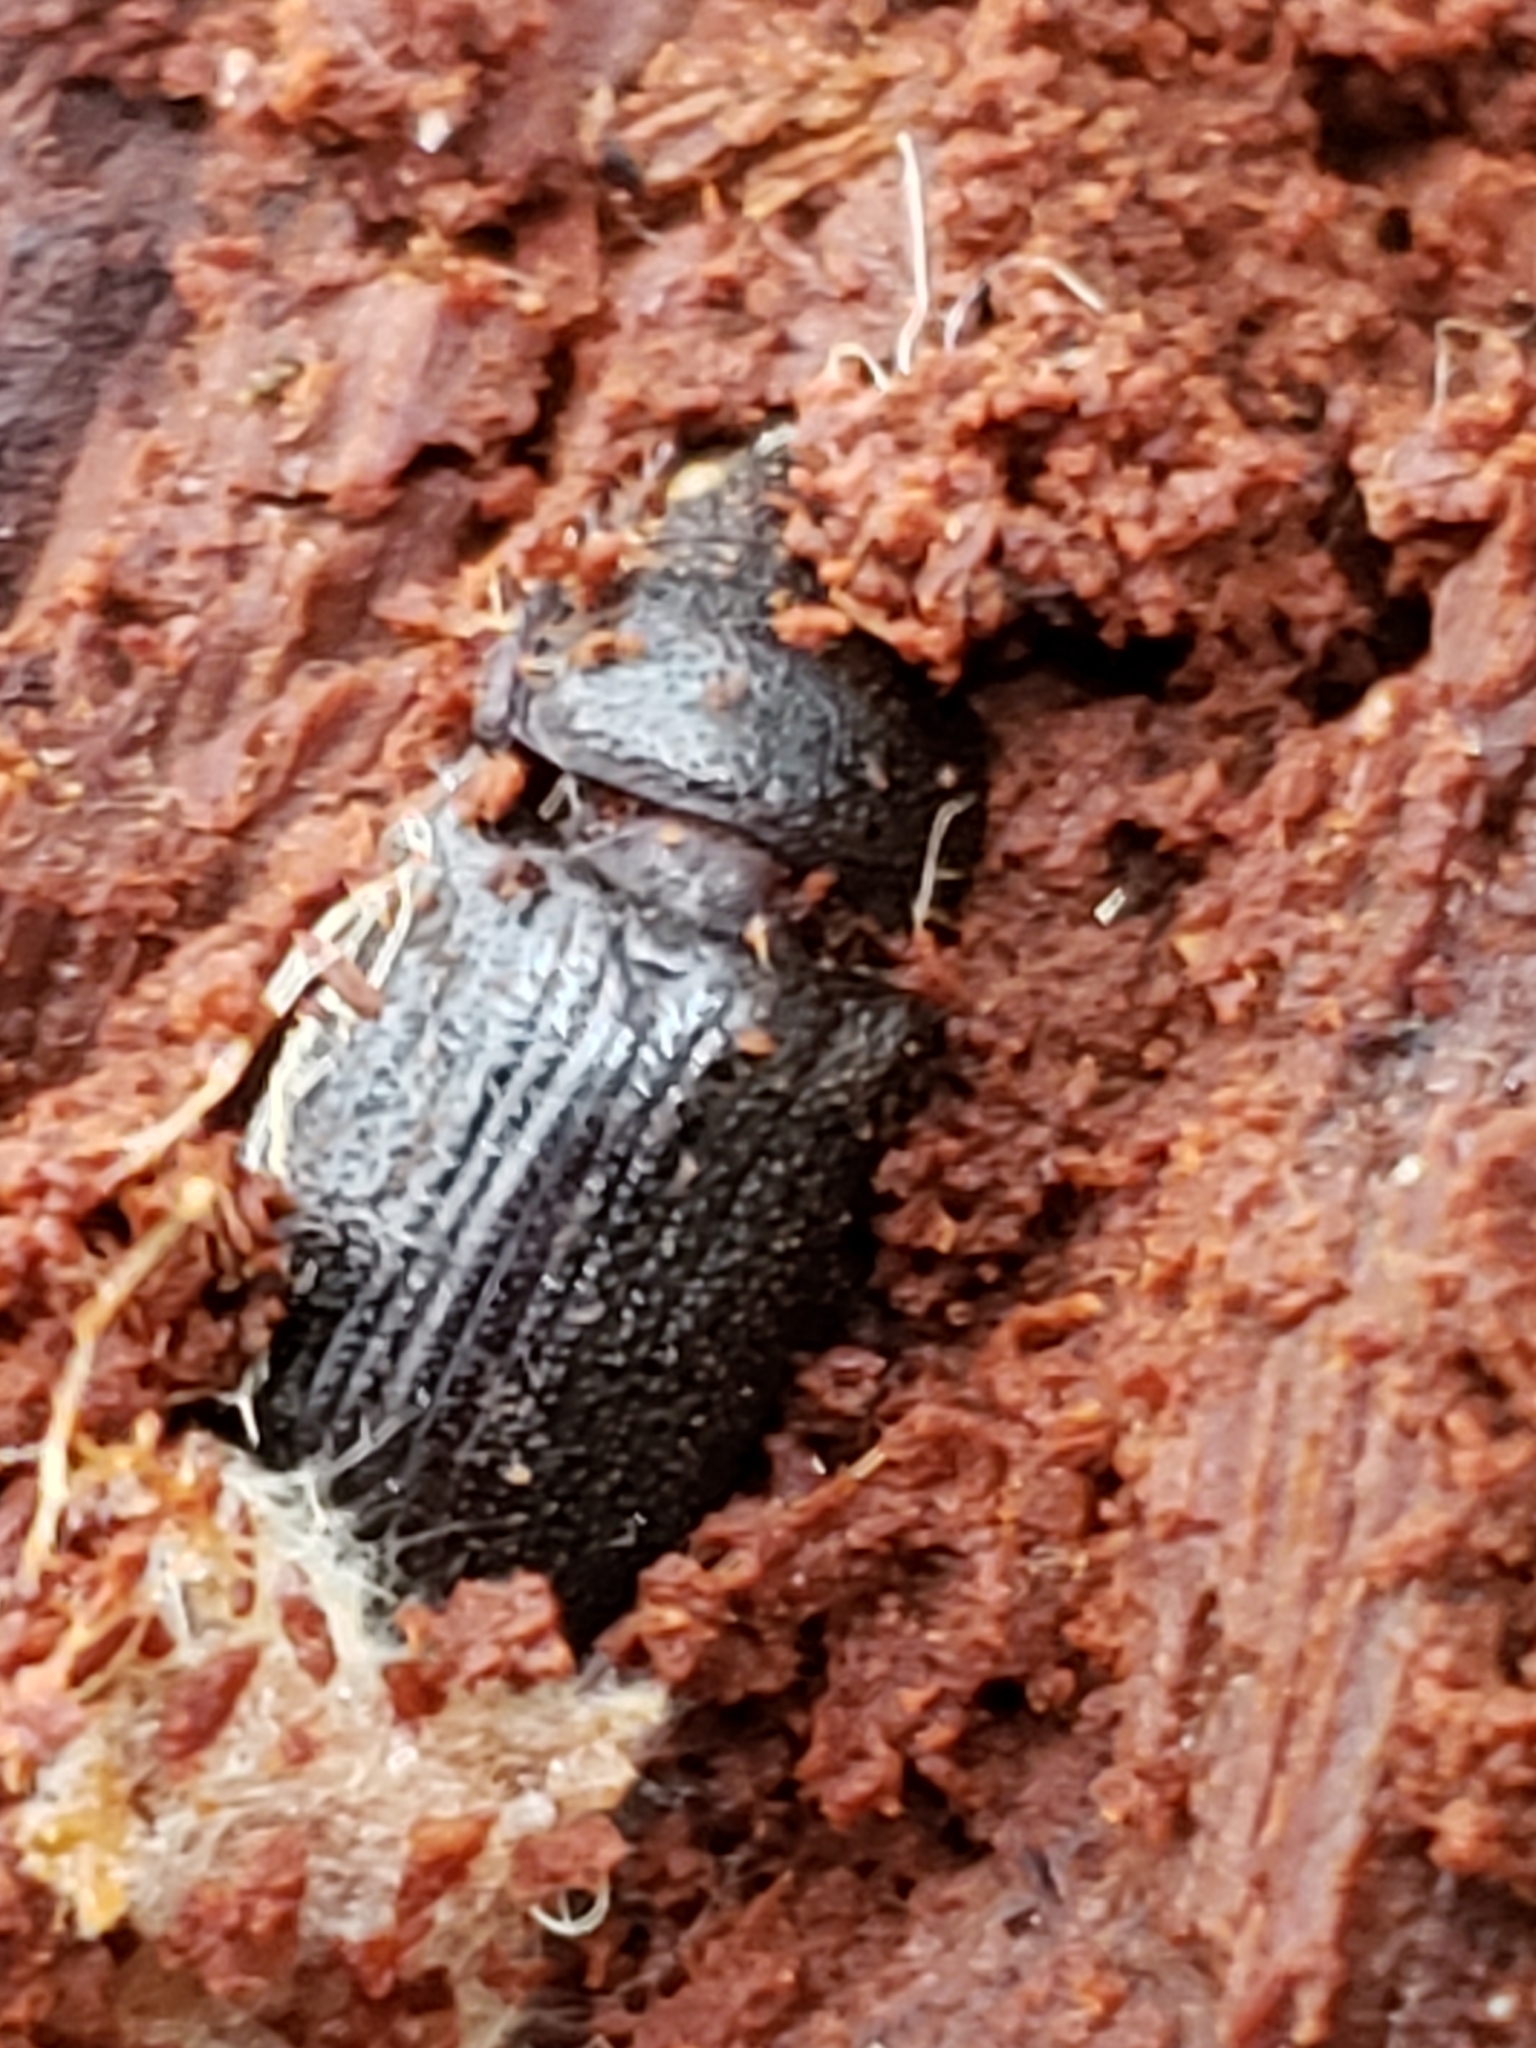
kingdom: Animalia
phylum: Arthropoda
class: Insecta
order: Coleoptera
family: Lucanidae
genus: Ceruchus
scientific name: Ceruchus piceus
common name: Red-rot decay stag beetle
